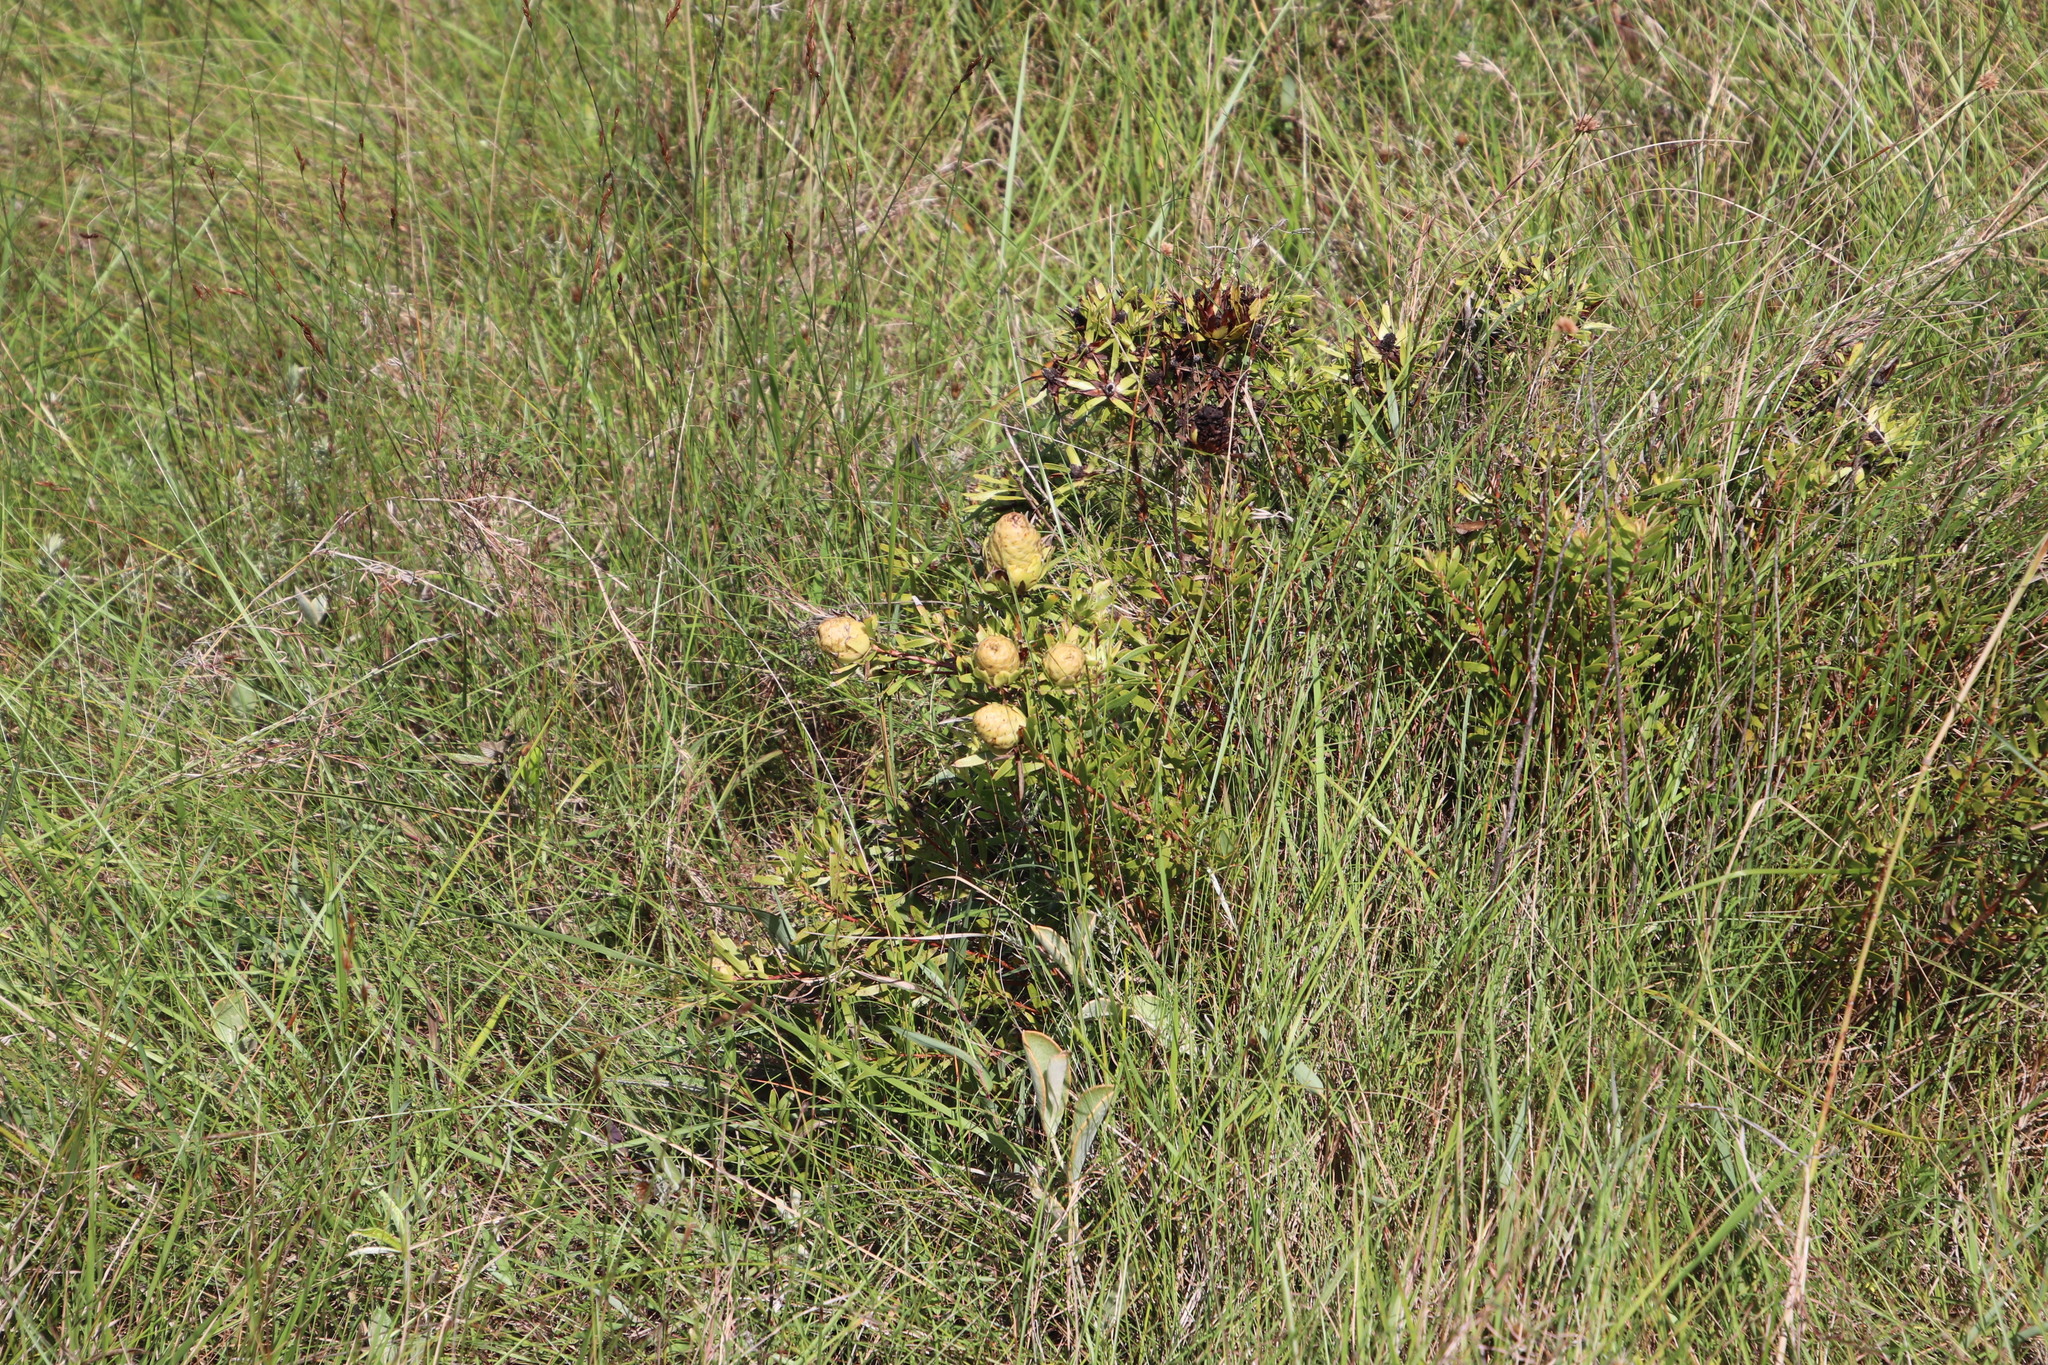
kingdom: Plantae
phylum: Tracheophyta
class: Magnoliopsida
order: Proteales
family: Proteaceae
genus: Leucadendron
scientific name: Leucadendron spissifolium
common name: Spear-leaf conebush
